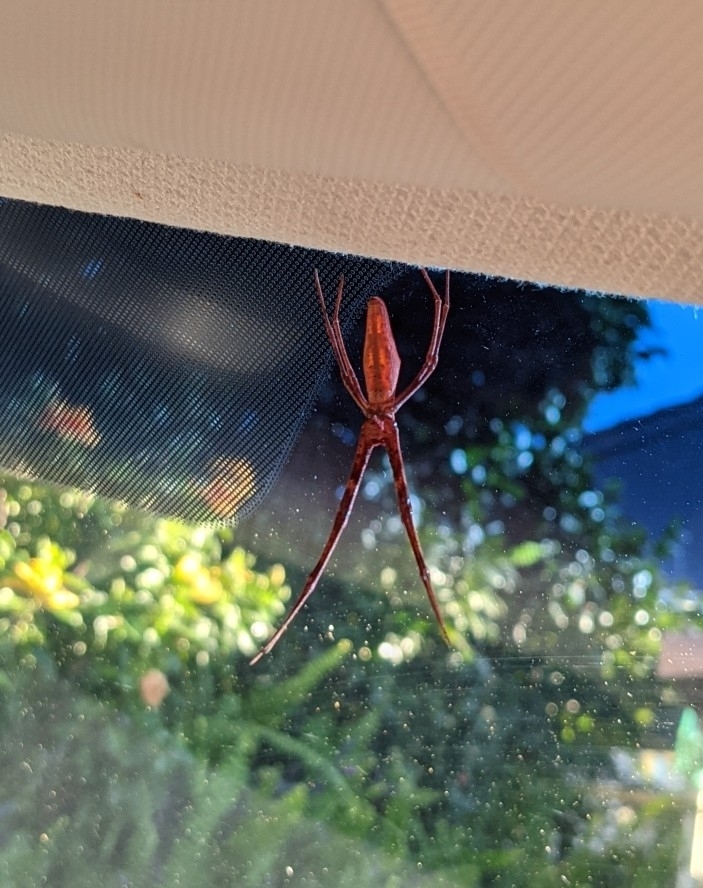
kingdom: Animalia
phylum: Arthropoda
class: Arachnida
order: Araneae
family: Deinopidae
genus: Deinopis
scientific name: Deinopis subrufa
